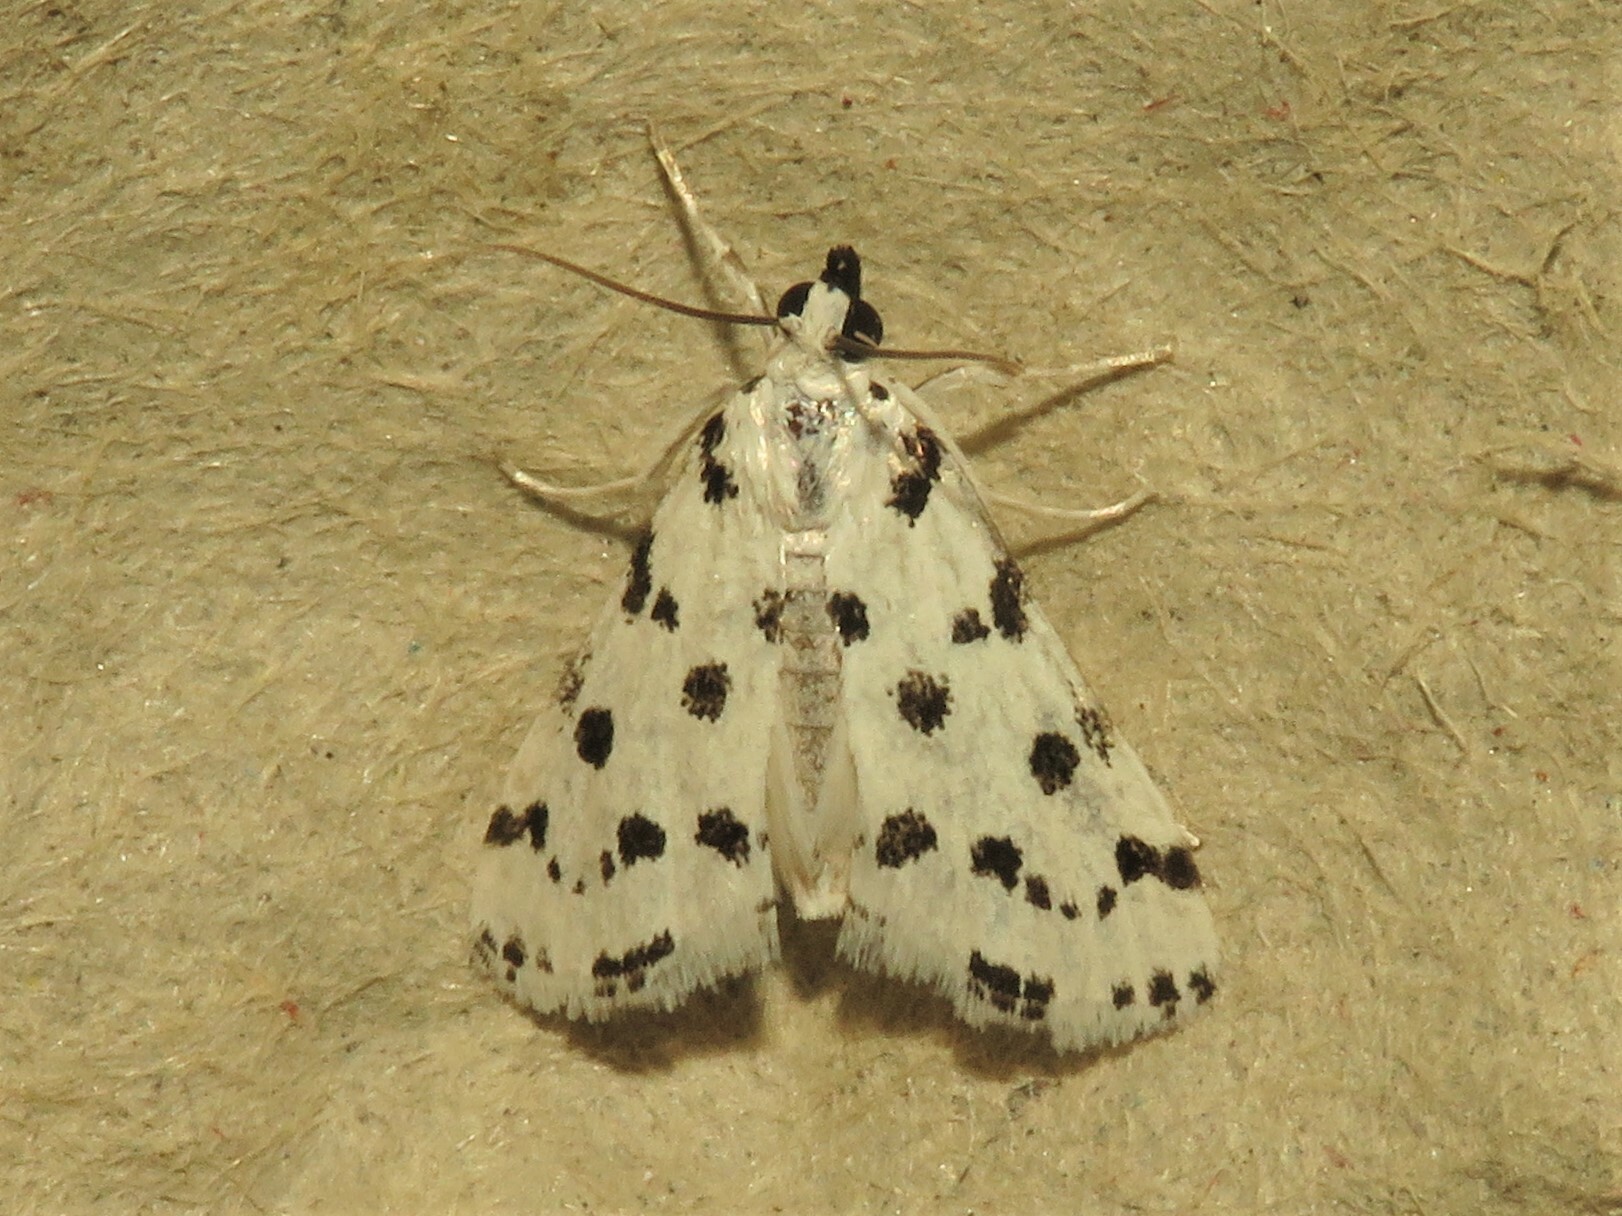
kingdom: Animalia
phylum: Arthropoda
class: Insecta
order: Lepidoptera
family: Crambidae
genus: Eustixia
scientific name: Eustixia pupula
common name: American cabbage pearl
